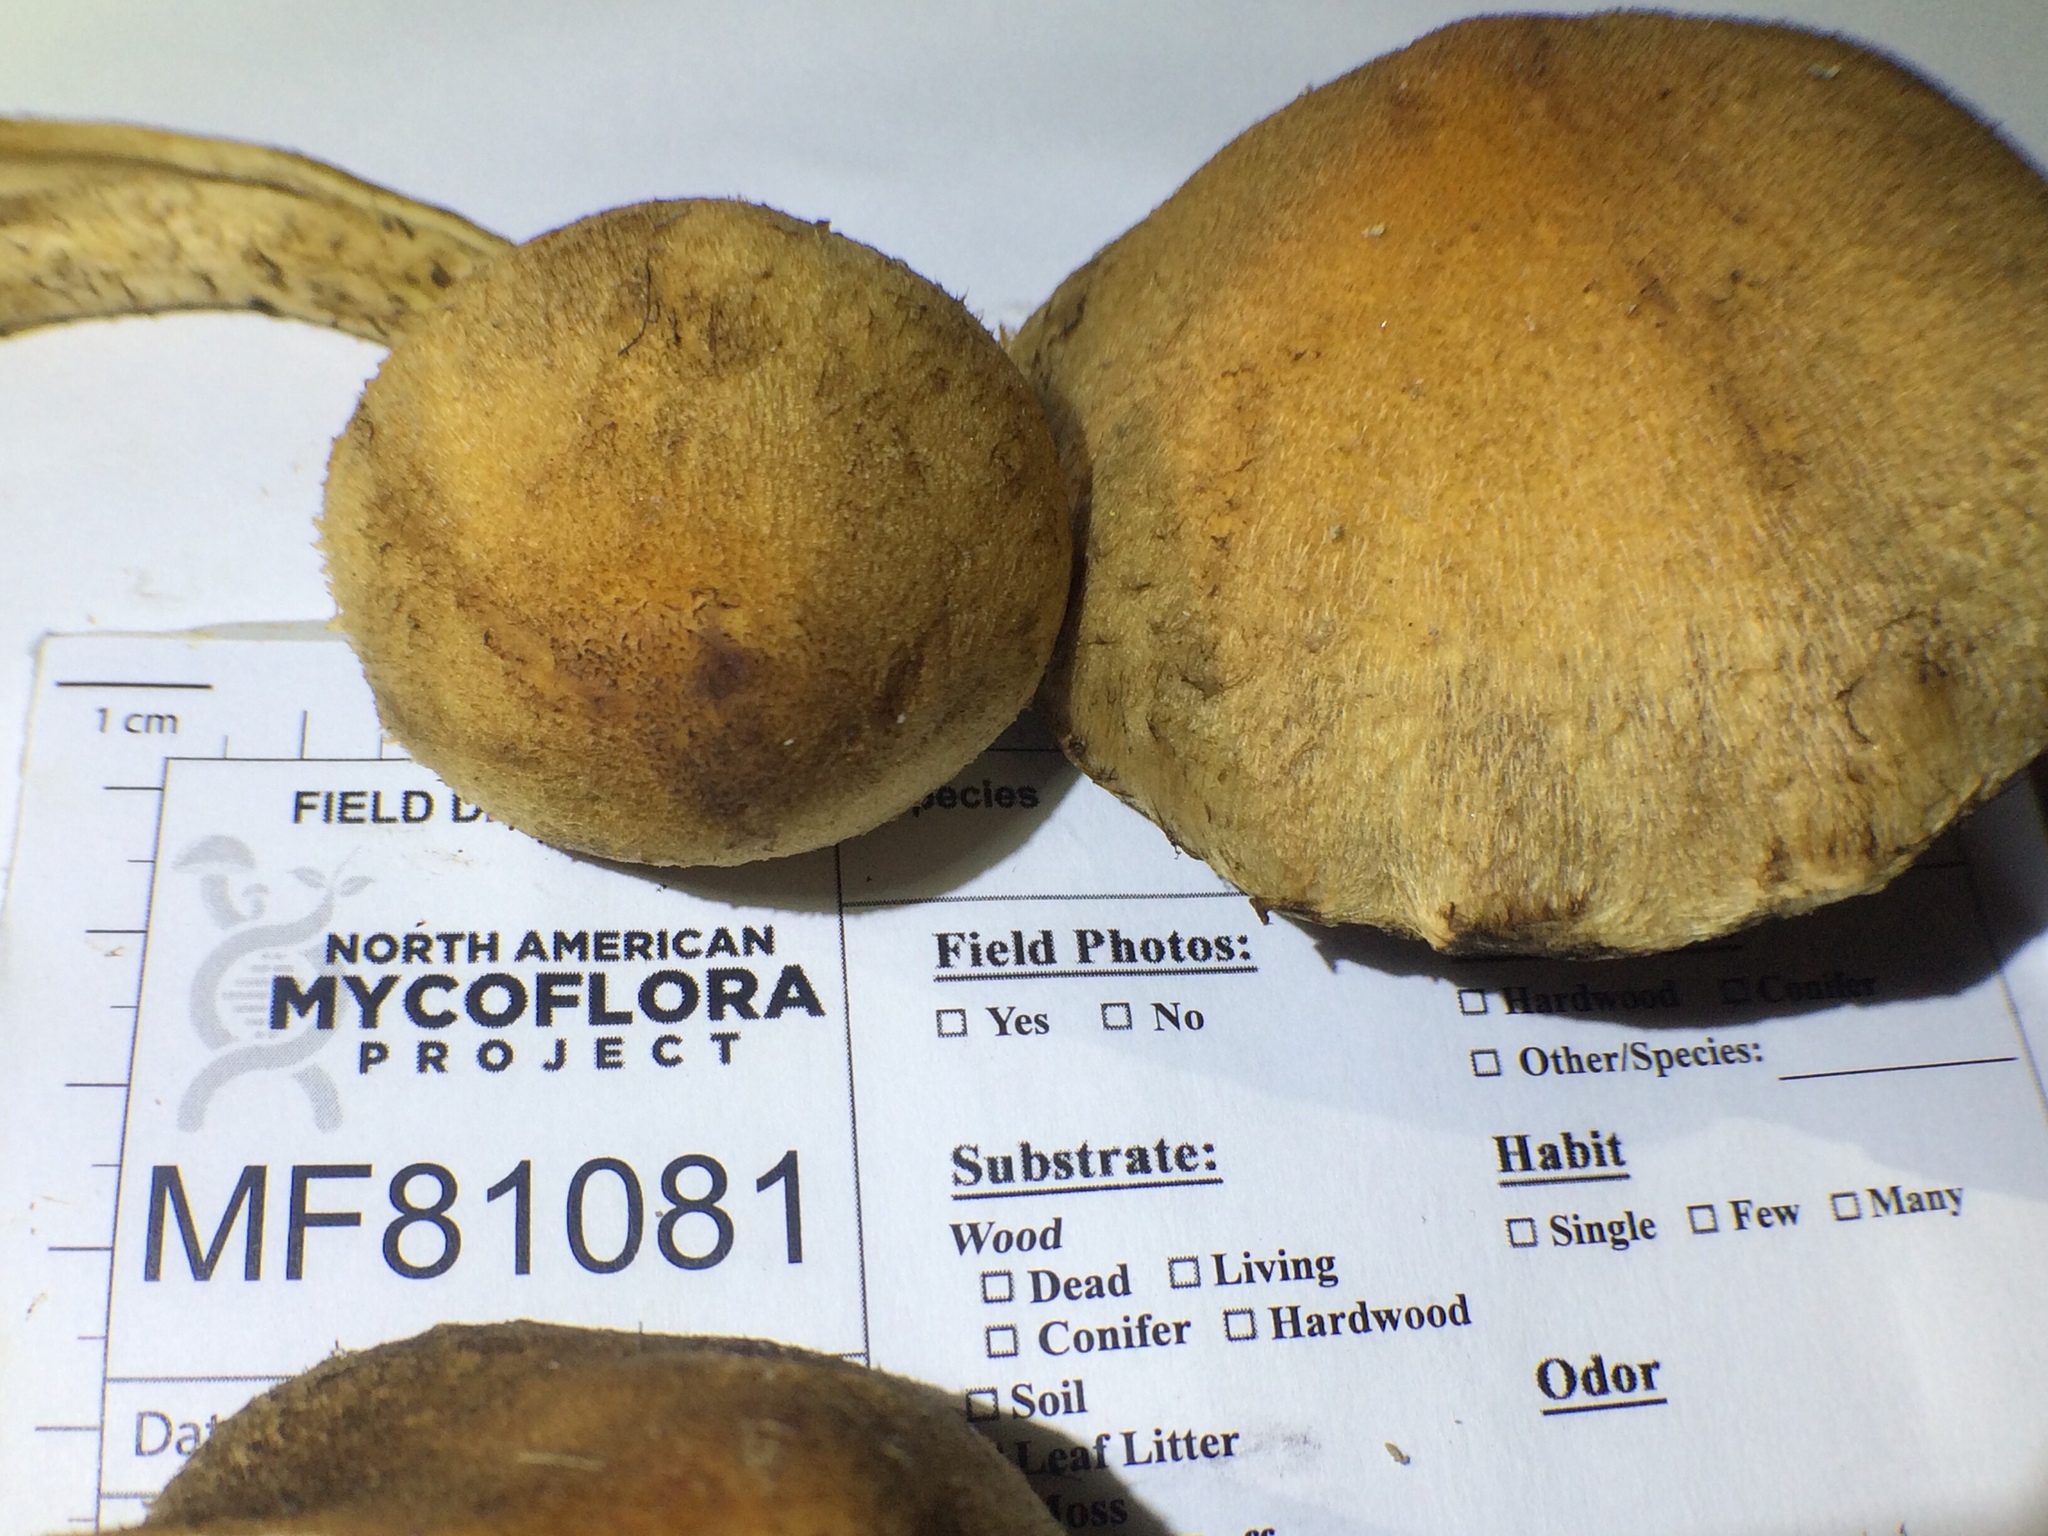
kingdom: Fungi
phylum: Basidiomycota
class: Agaricomycetes
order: Agaricales
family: Psathyrellaceae
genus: Lacrymaria
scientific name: Lacrymaria lacrymabunda
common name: Weeping widow
